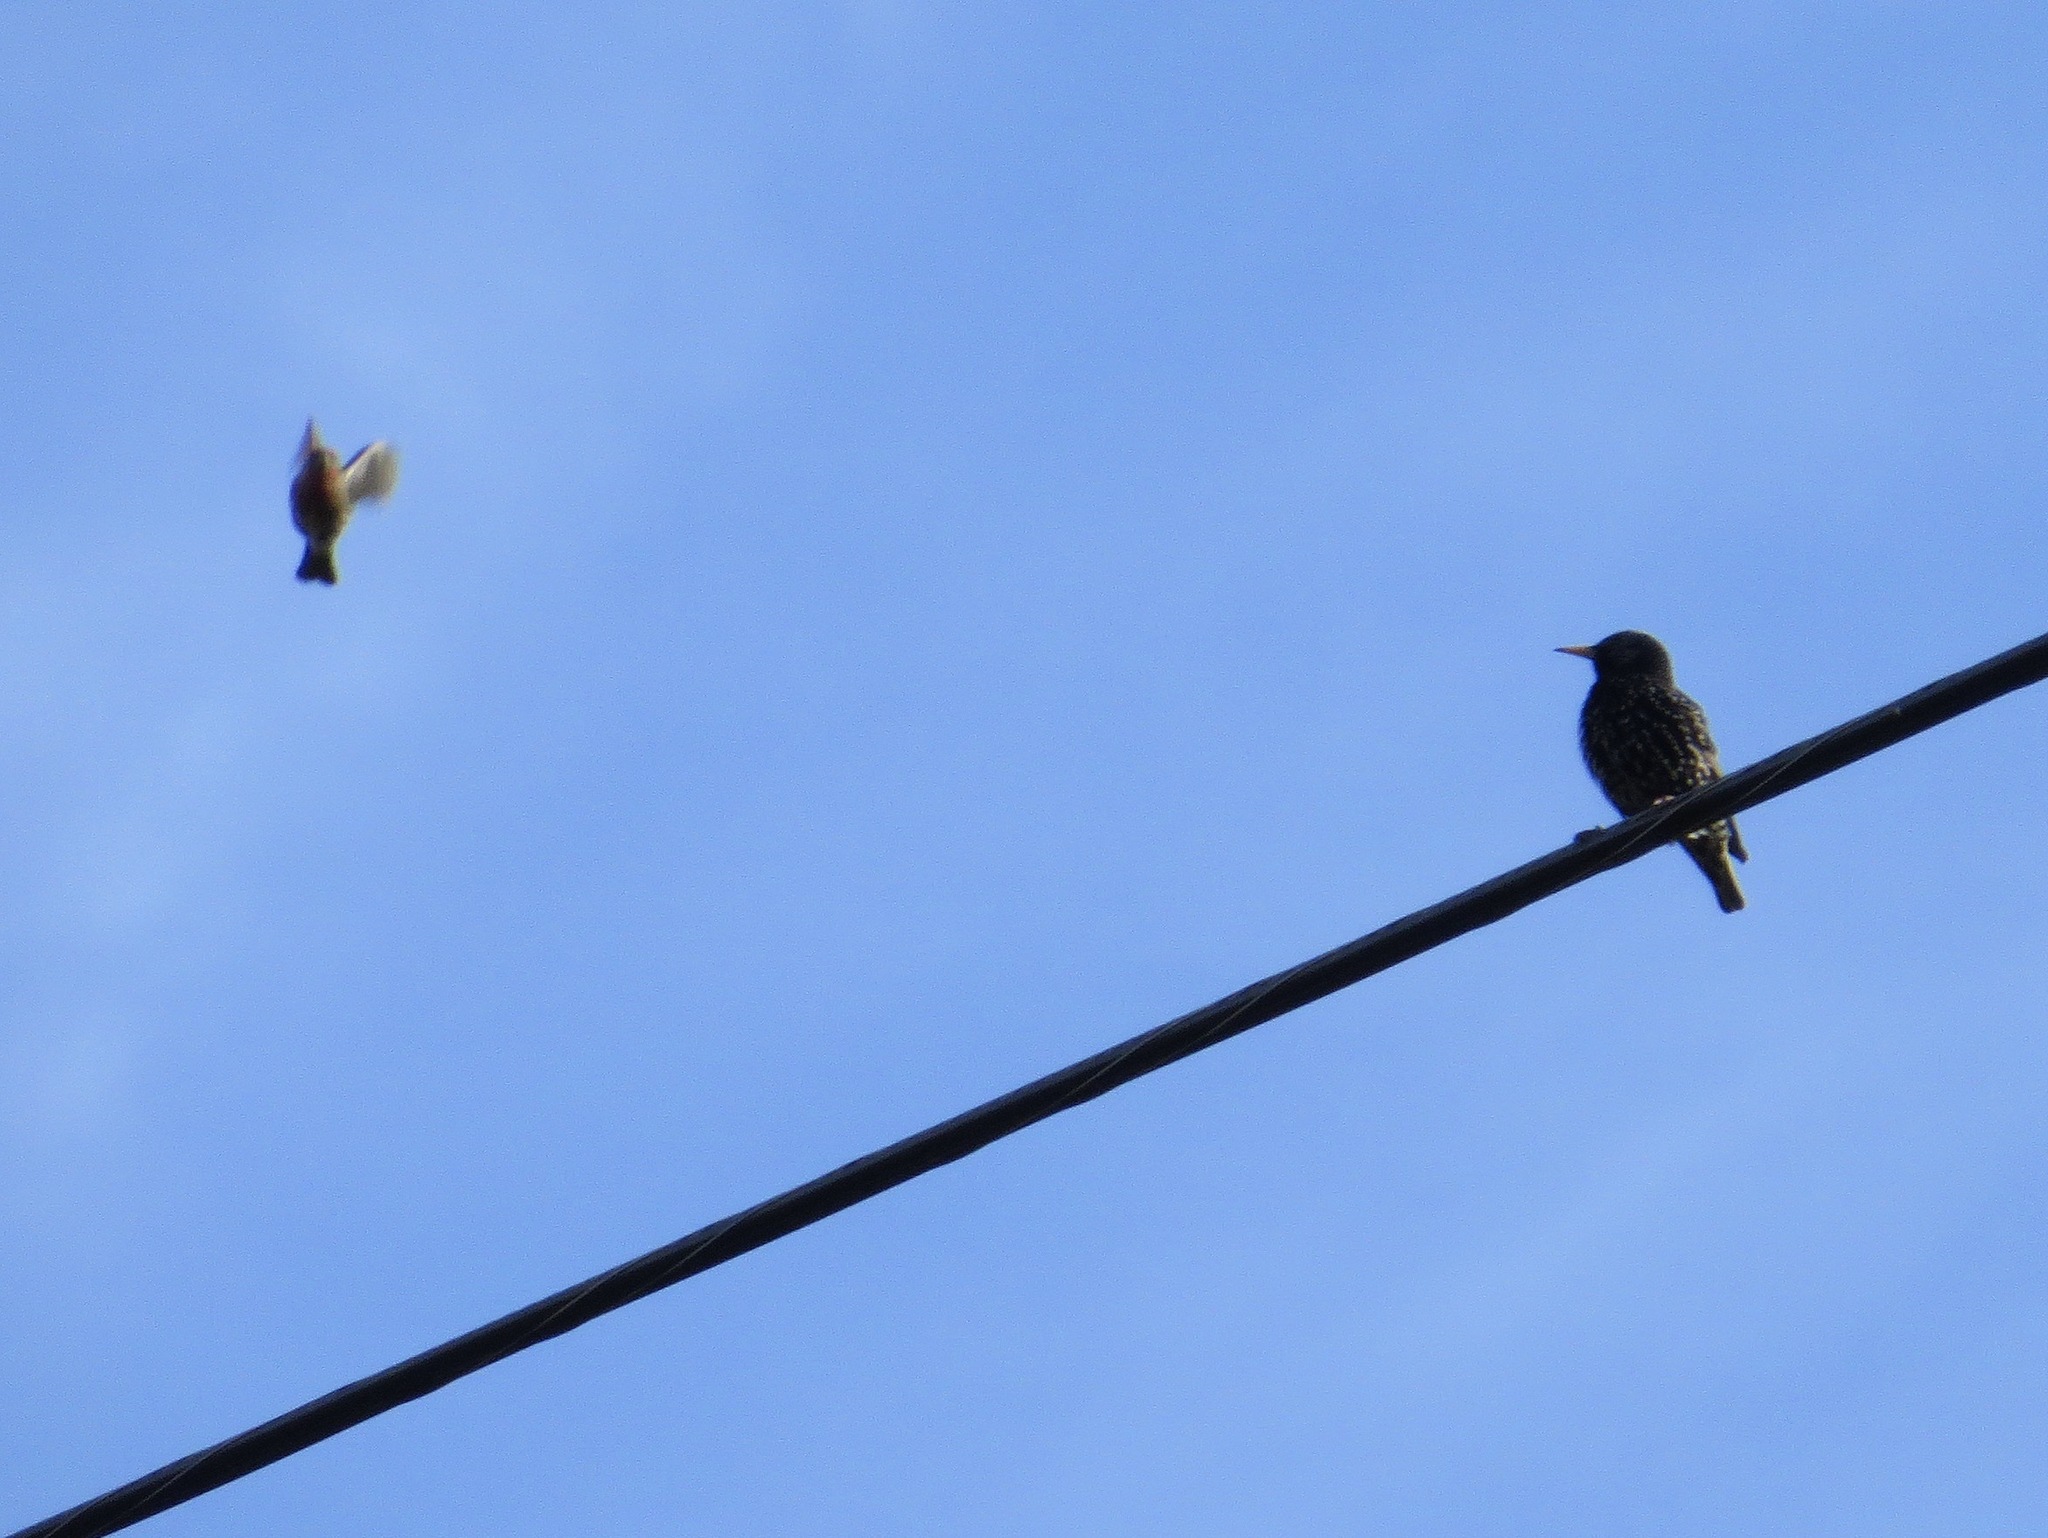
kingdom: Animalia
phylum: Chordata
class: Aves
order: Passeriformes
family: Fringillidae
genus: Haemorhous
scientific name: Haemorhous mexicanus
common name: House finch
